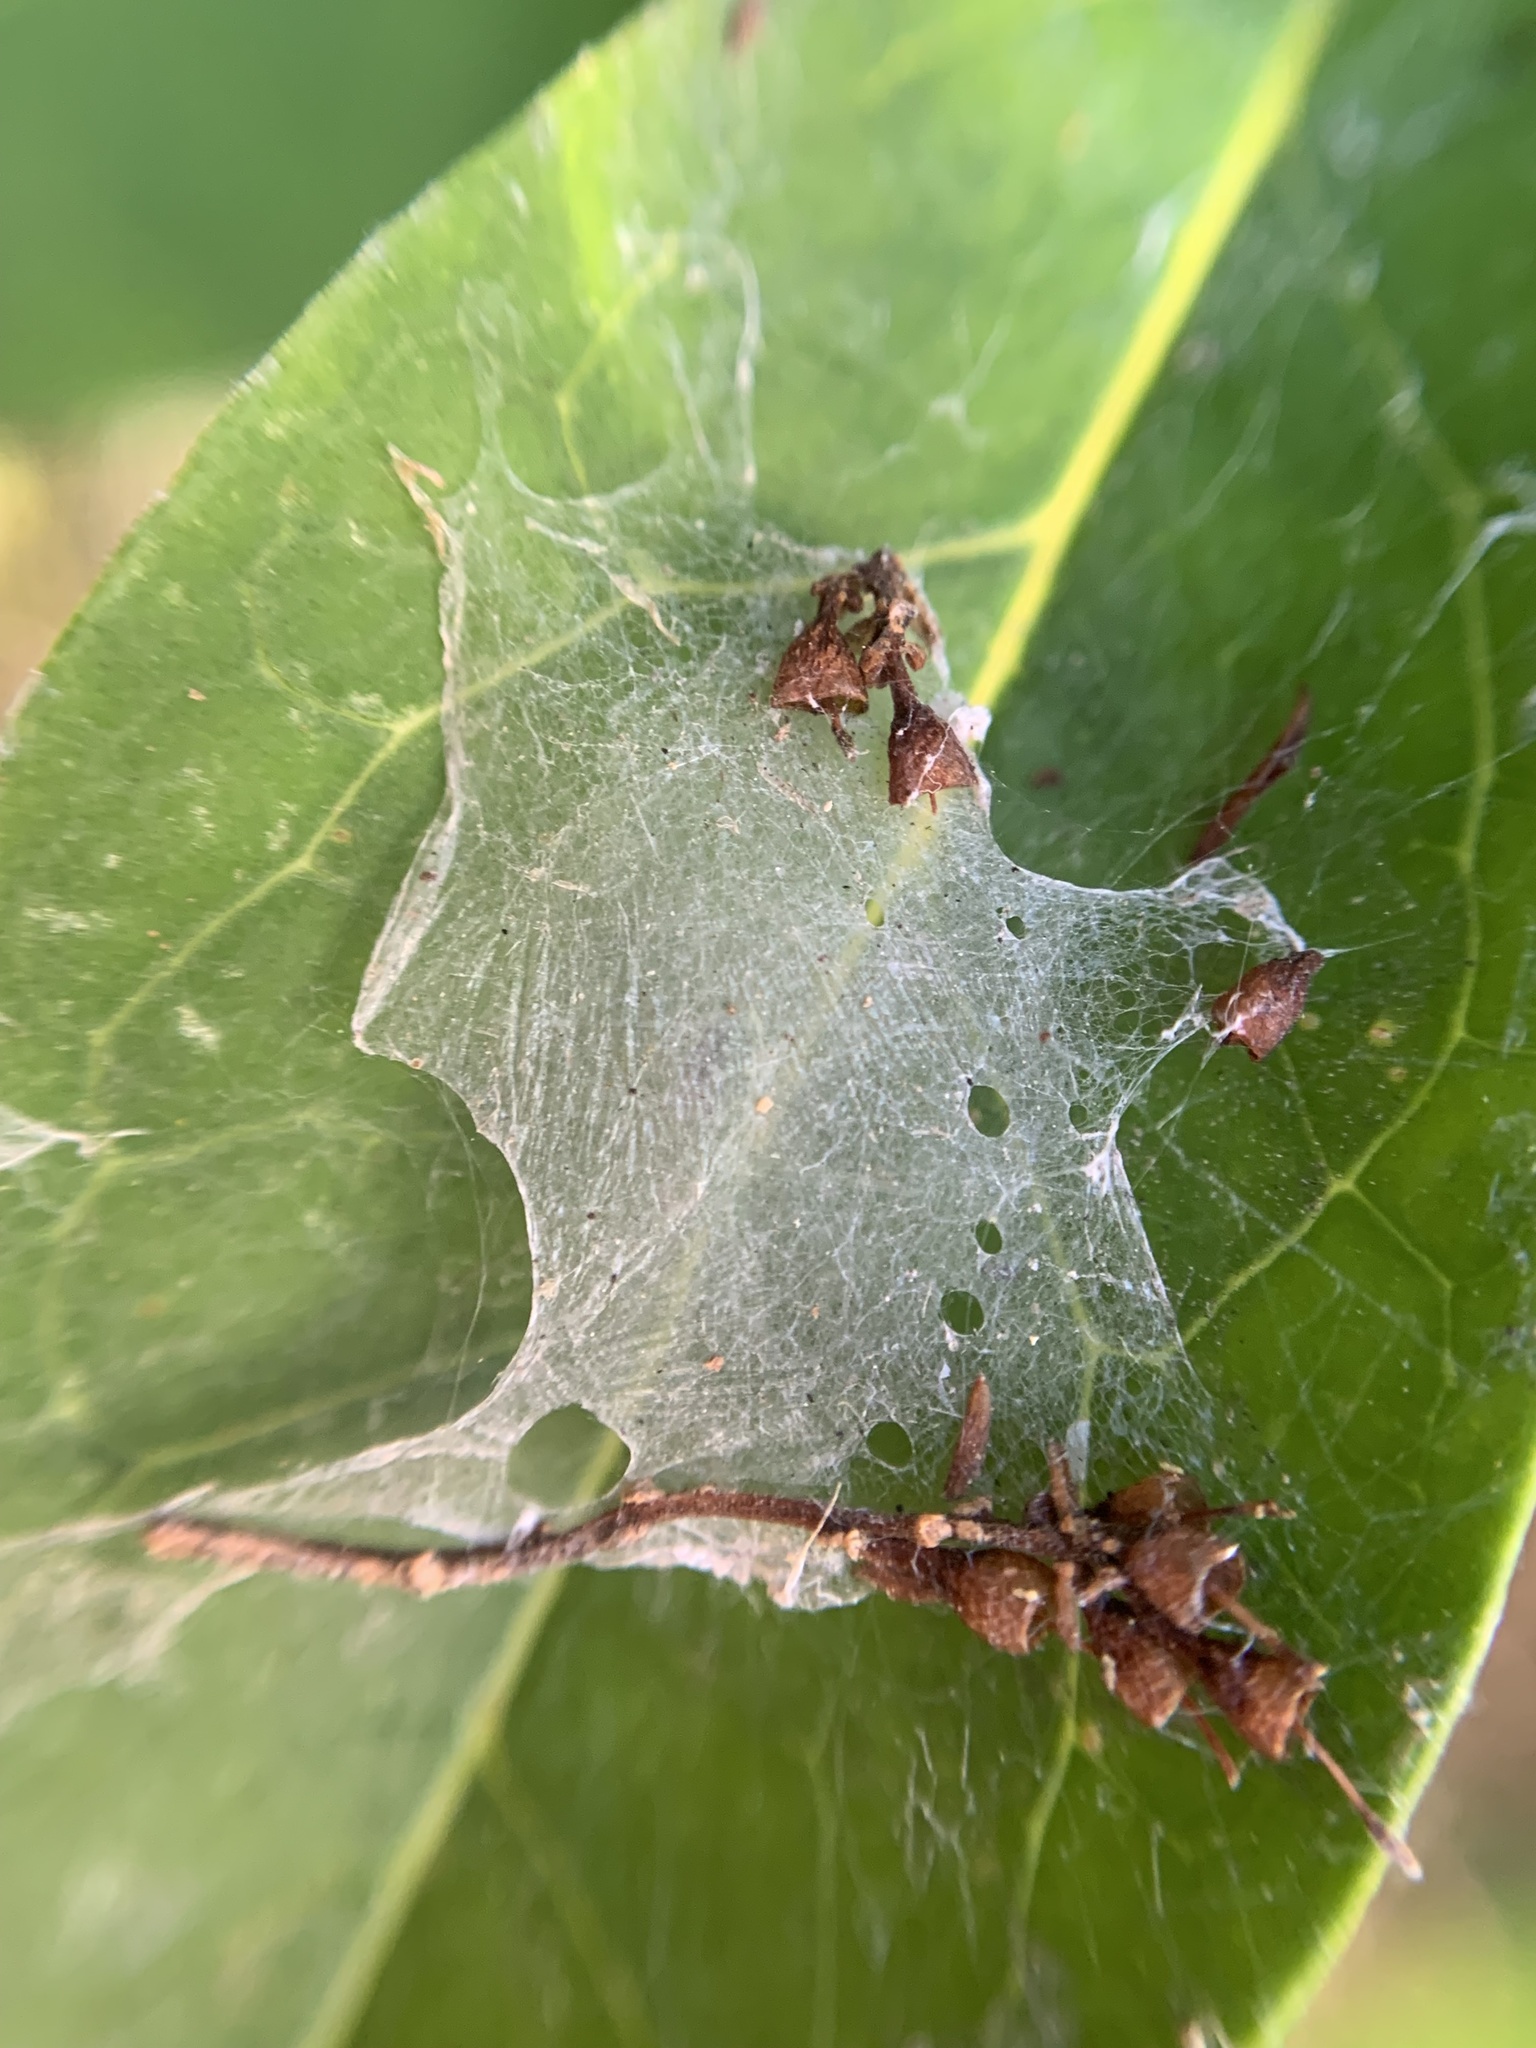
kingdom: Animalia
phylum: Arthropoda
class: Arachnida
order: Araneae
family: Dictynidae
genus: Nigma
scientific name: Nigma walckenaeri
